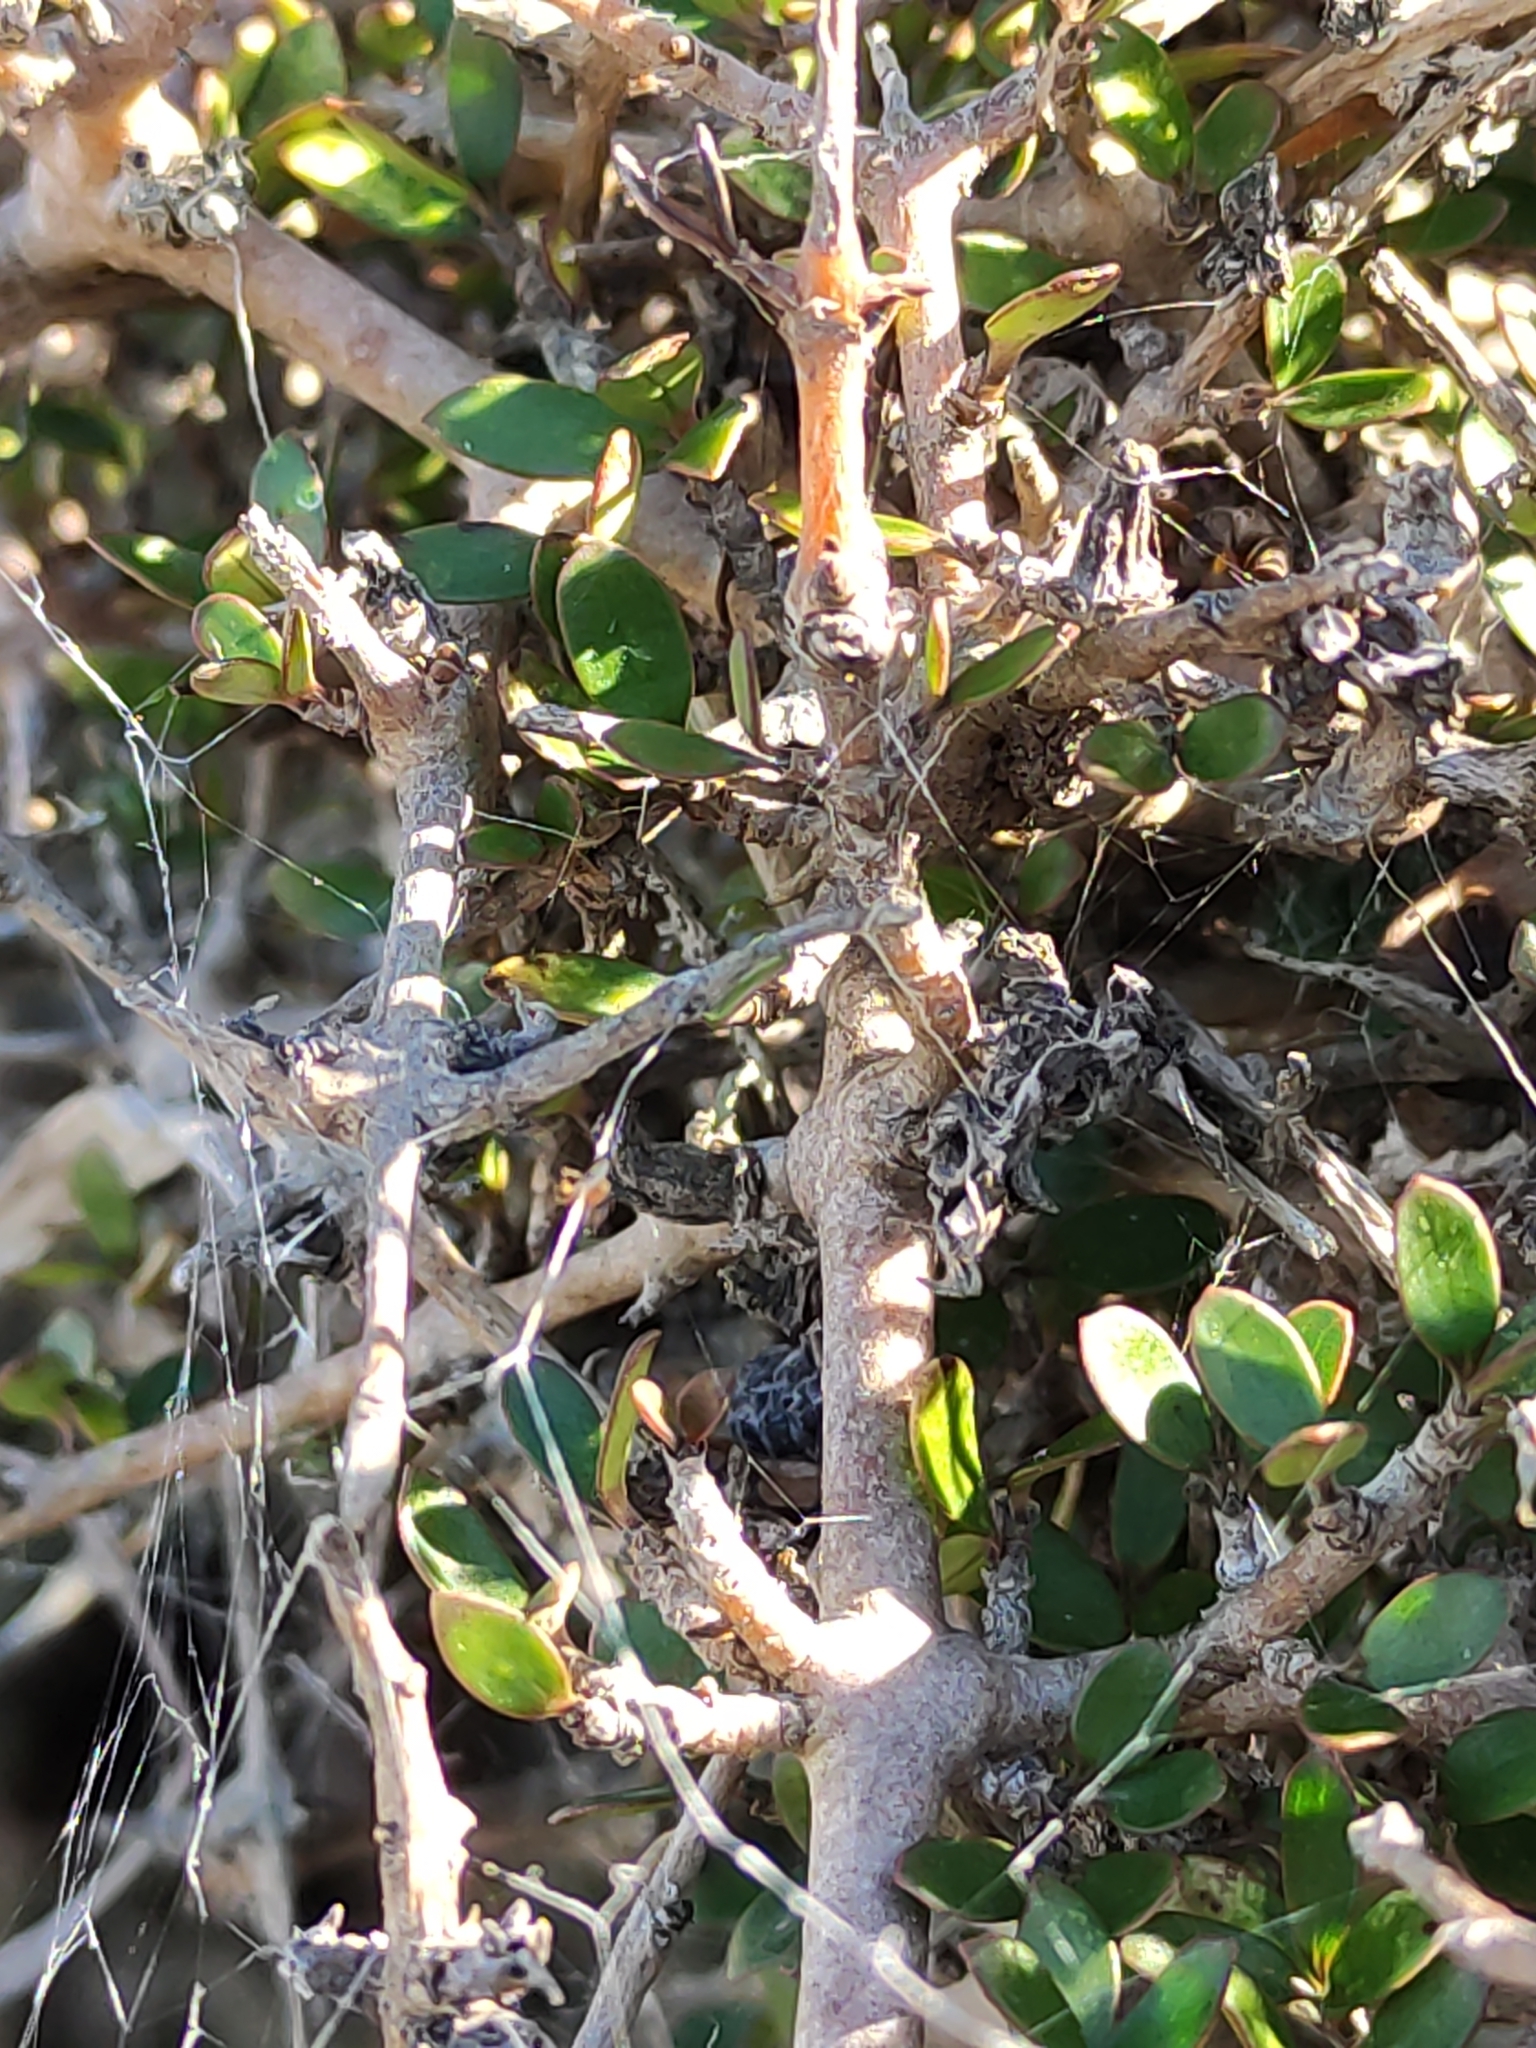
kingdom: Plantae
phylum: Tracheophyta
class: Magnoliopsida
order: Gentianales
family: Rubiaceae
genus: Coprosma
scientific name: Coprosma propinqua
